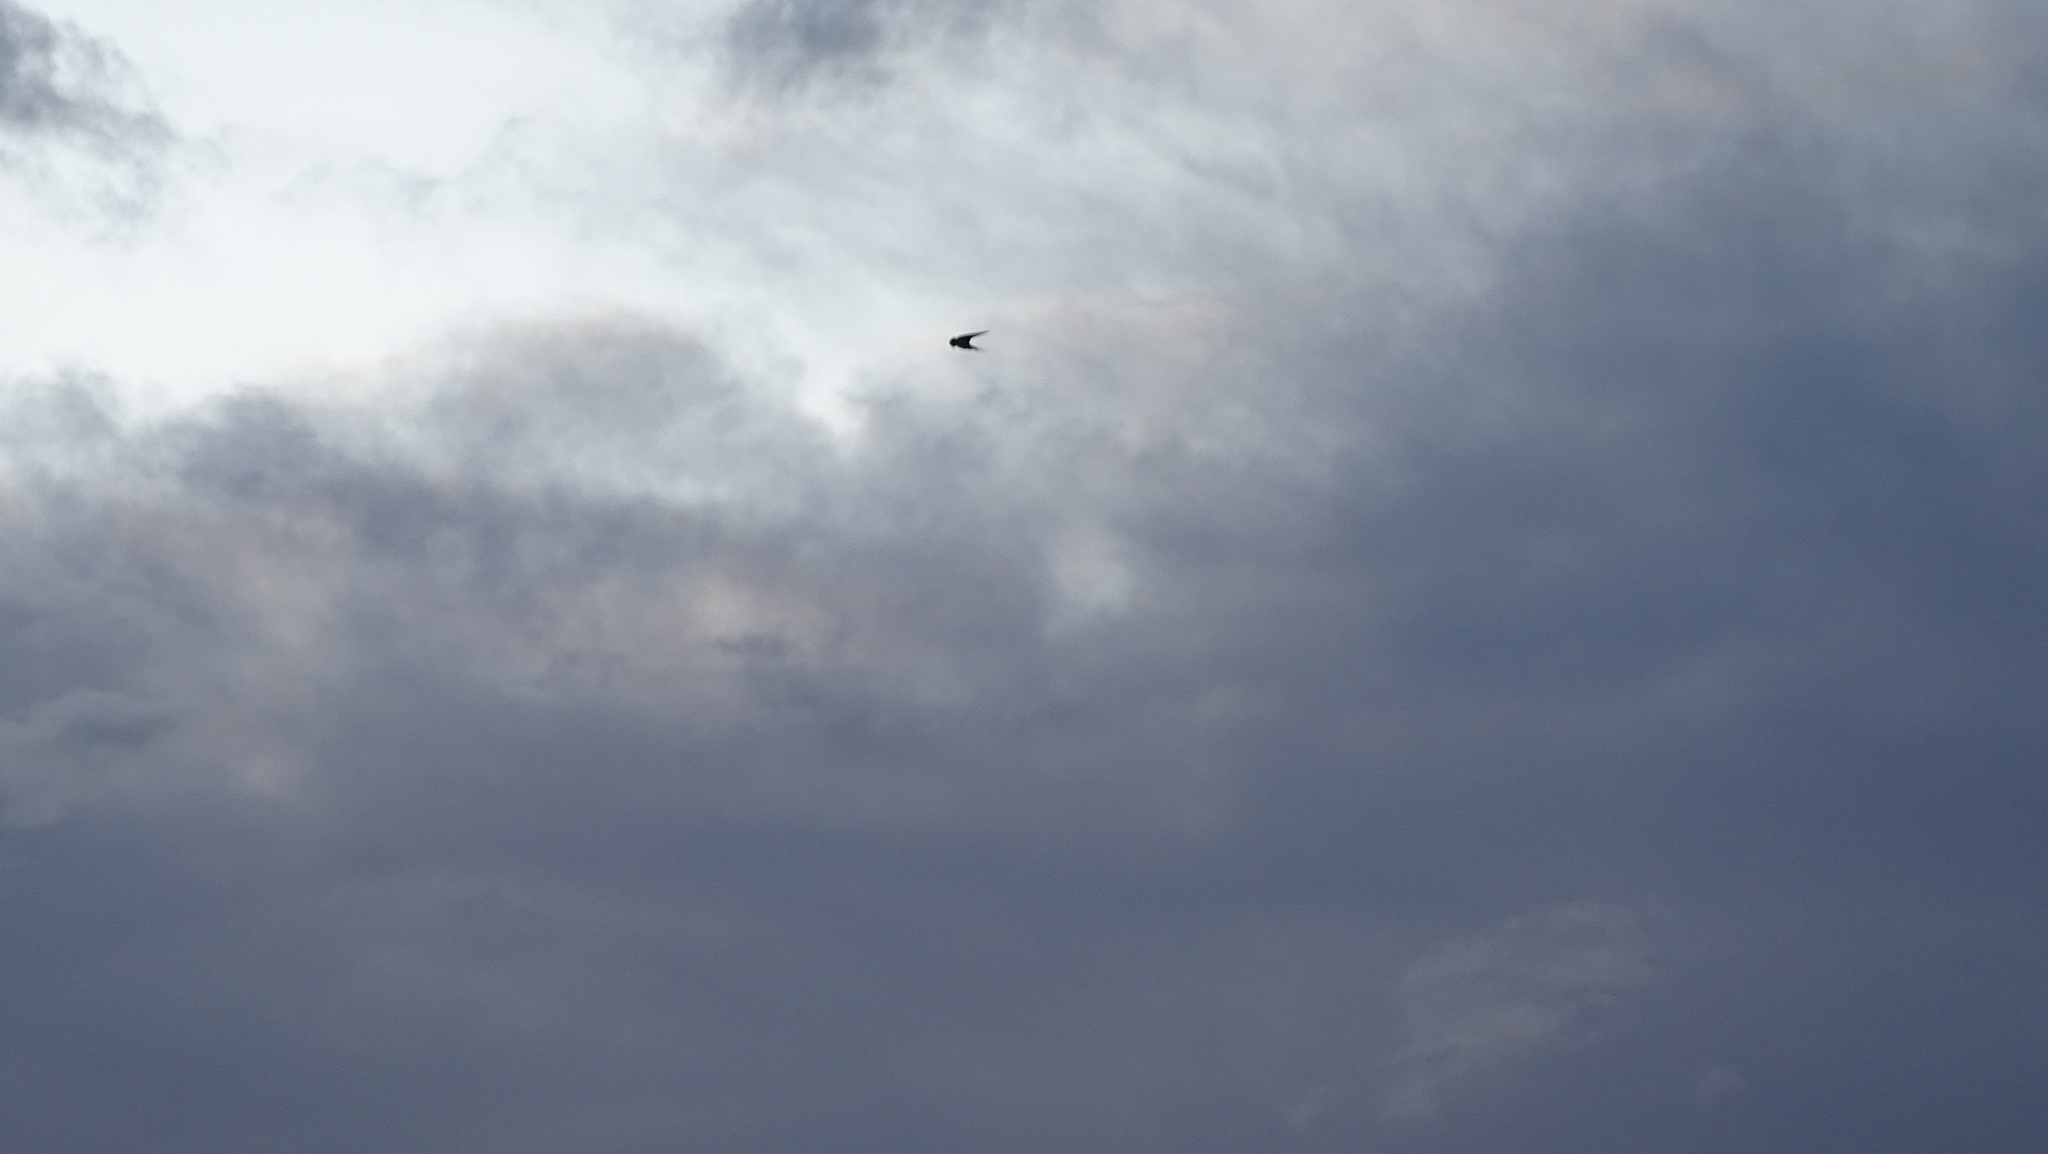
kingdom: Animalia
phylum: Chordata
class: Aves
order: Passeriformes
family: Hirundinidae
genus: Hirundo
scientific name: Hirundo rustica
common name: Barn swallow
